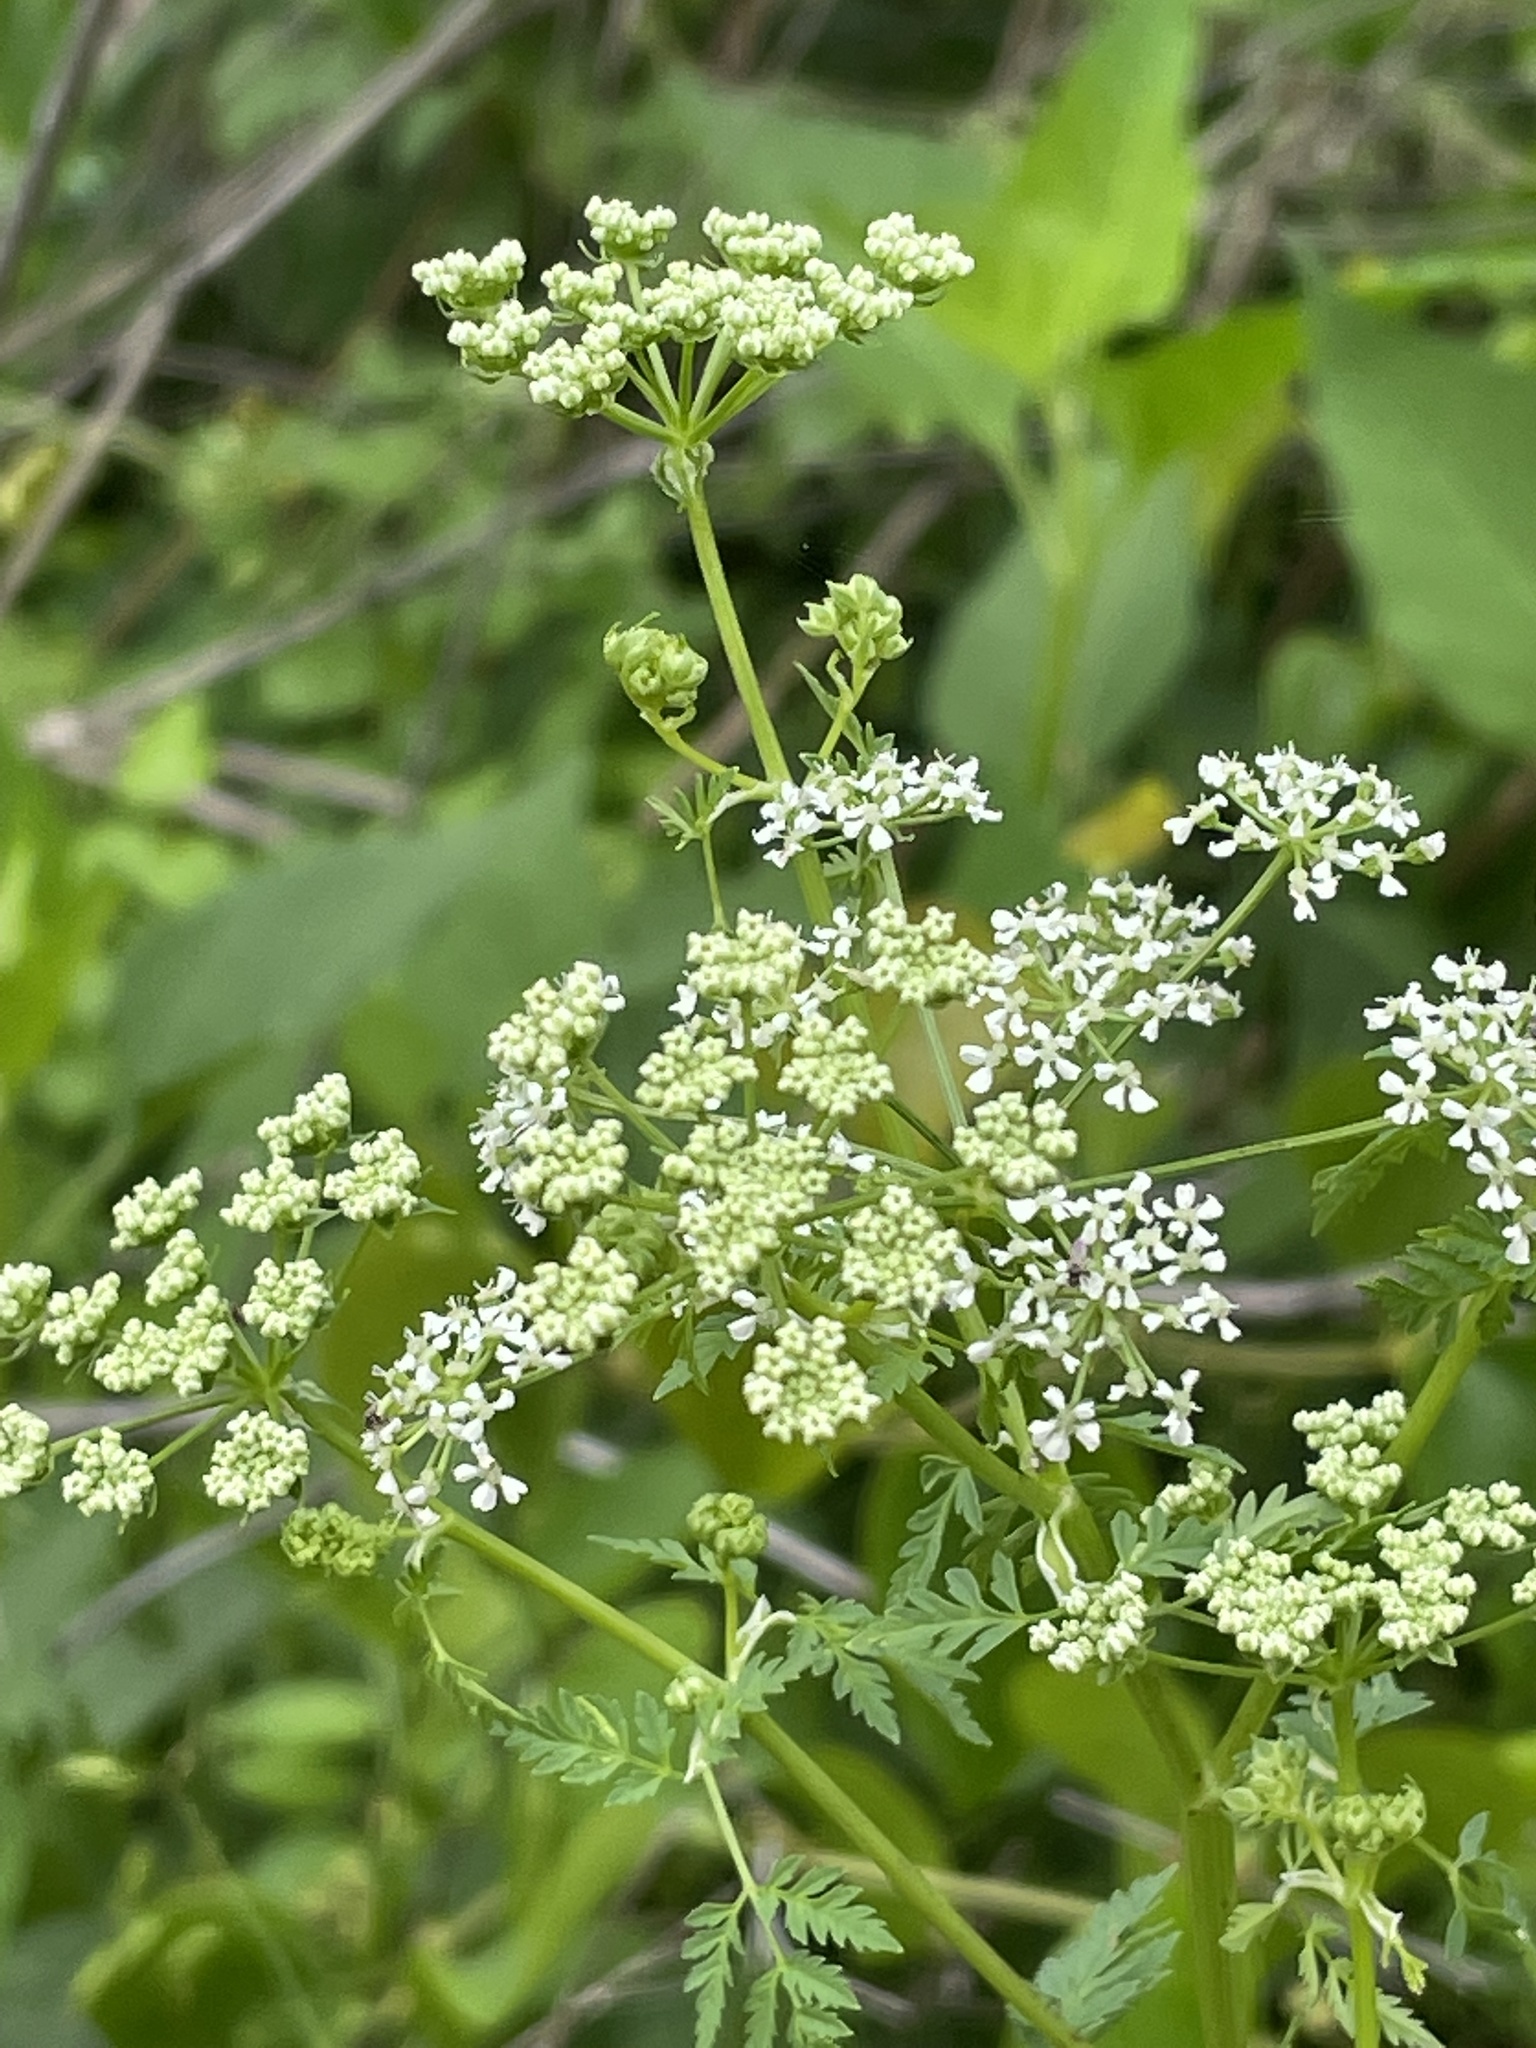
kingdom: Plantae
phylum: Tracheophyta
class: Magnoliopsida
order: Apiales
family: Apiaceae
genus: Conium
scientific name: Conium maculatum
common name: Hemlock
